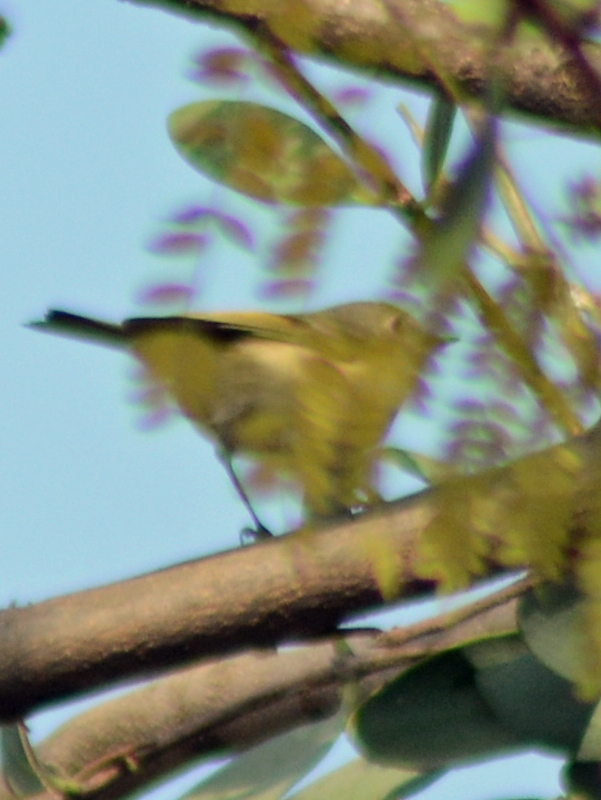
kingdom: Animalia
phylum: Chordata
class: Aves
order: Passeriformes
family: Regulidae
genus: Regulus
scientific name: Regulus calendula
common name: Ruby-crowned kinglet
